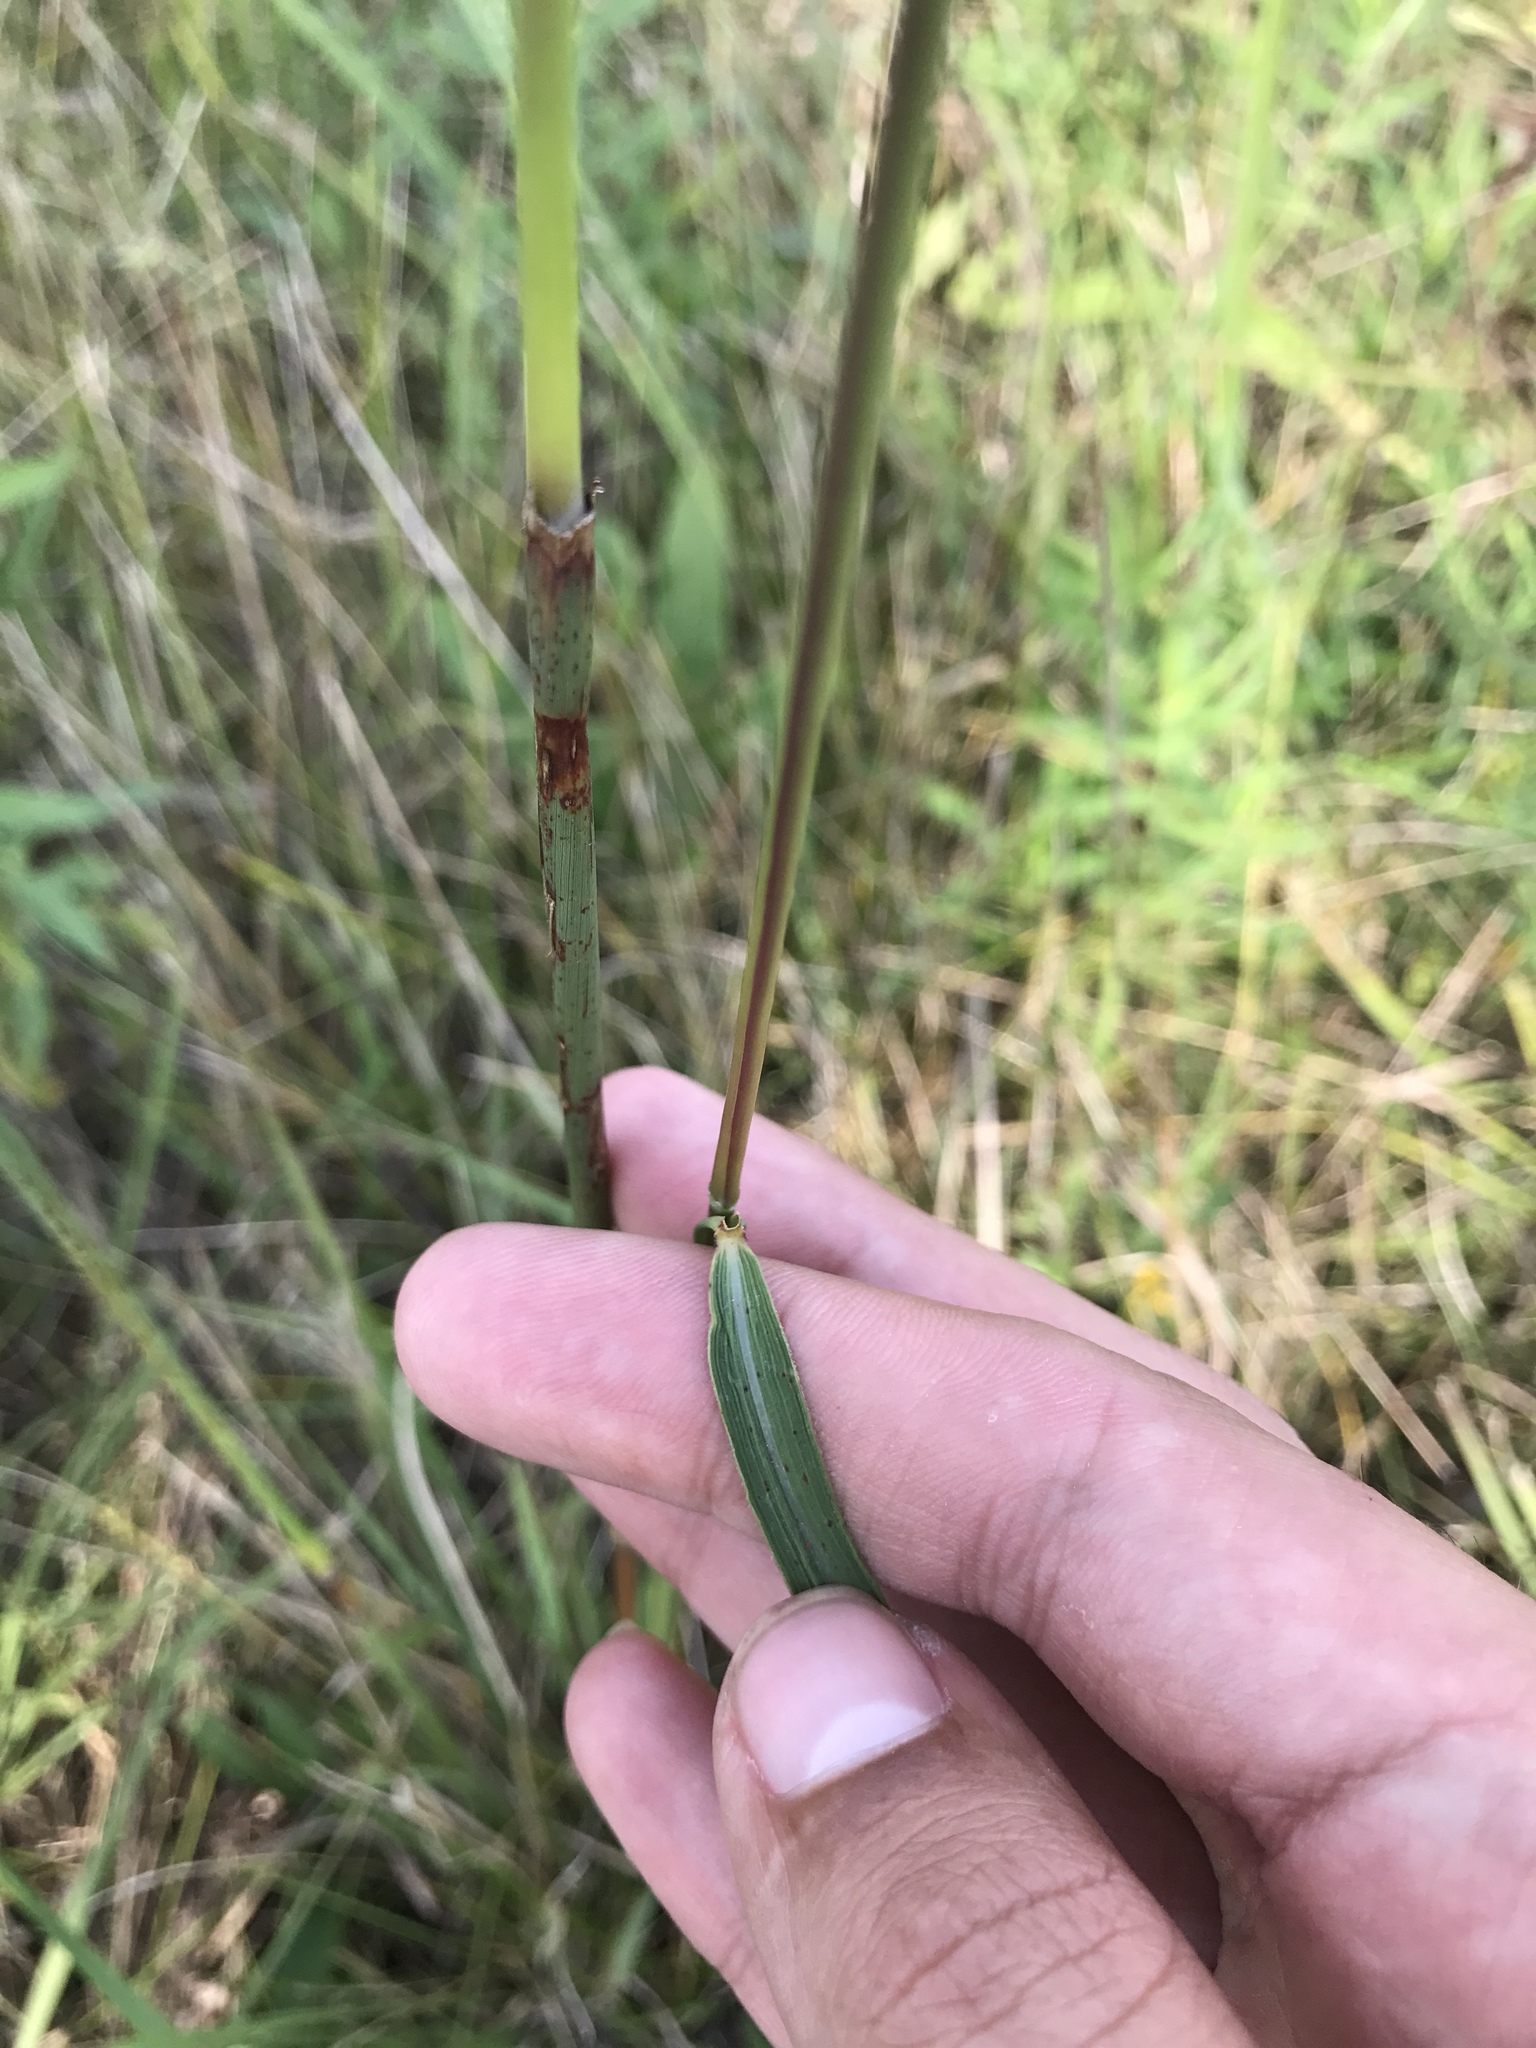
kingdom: Plantae
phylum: Tracheophyta
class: Magnoliopsida
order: Asterales
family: Asteraceae
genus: Pseudognaphalium
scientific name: Pseudognaphalium obtusifolium
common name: Eastern rabbit-tobacco
